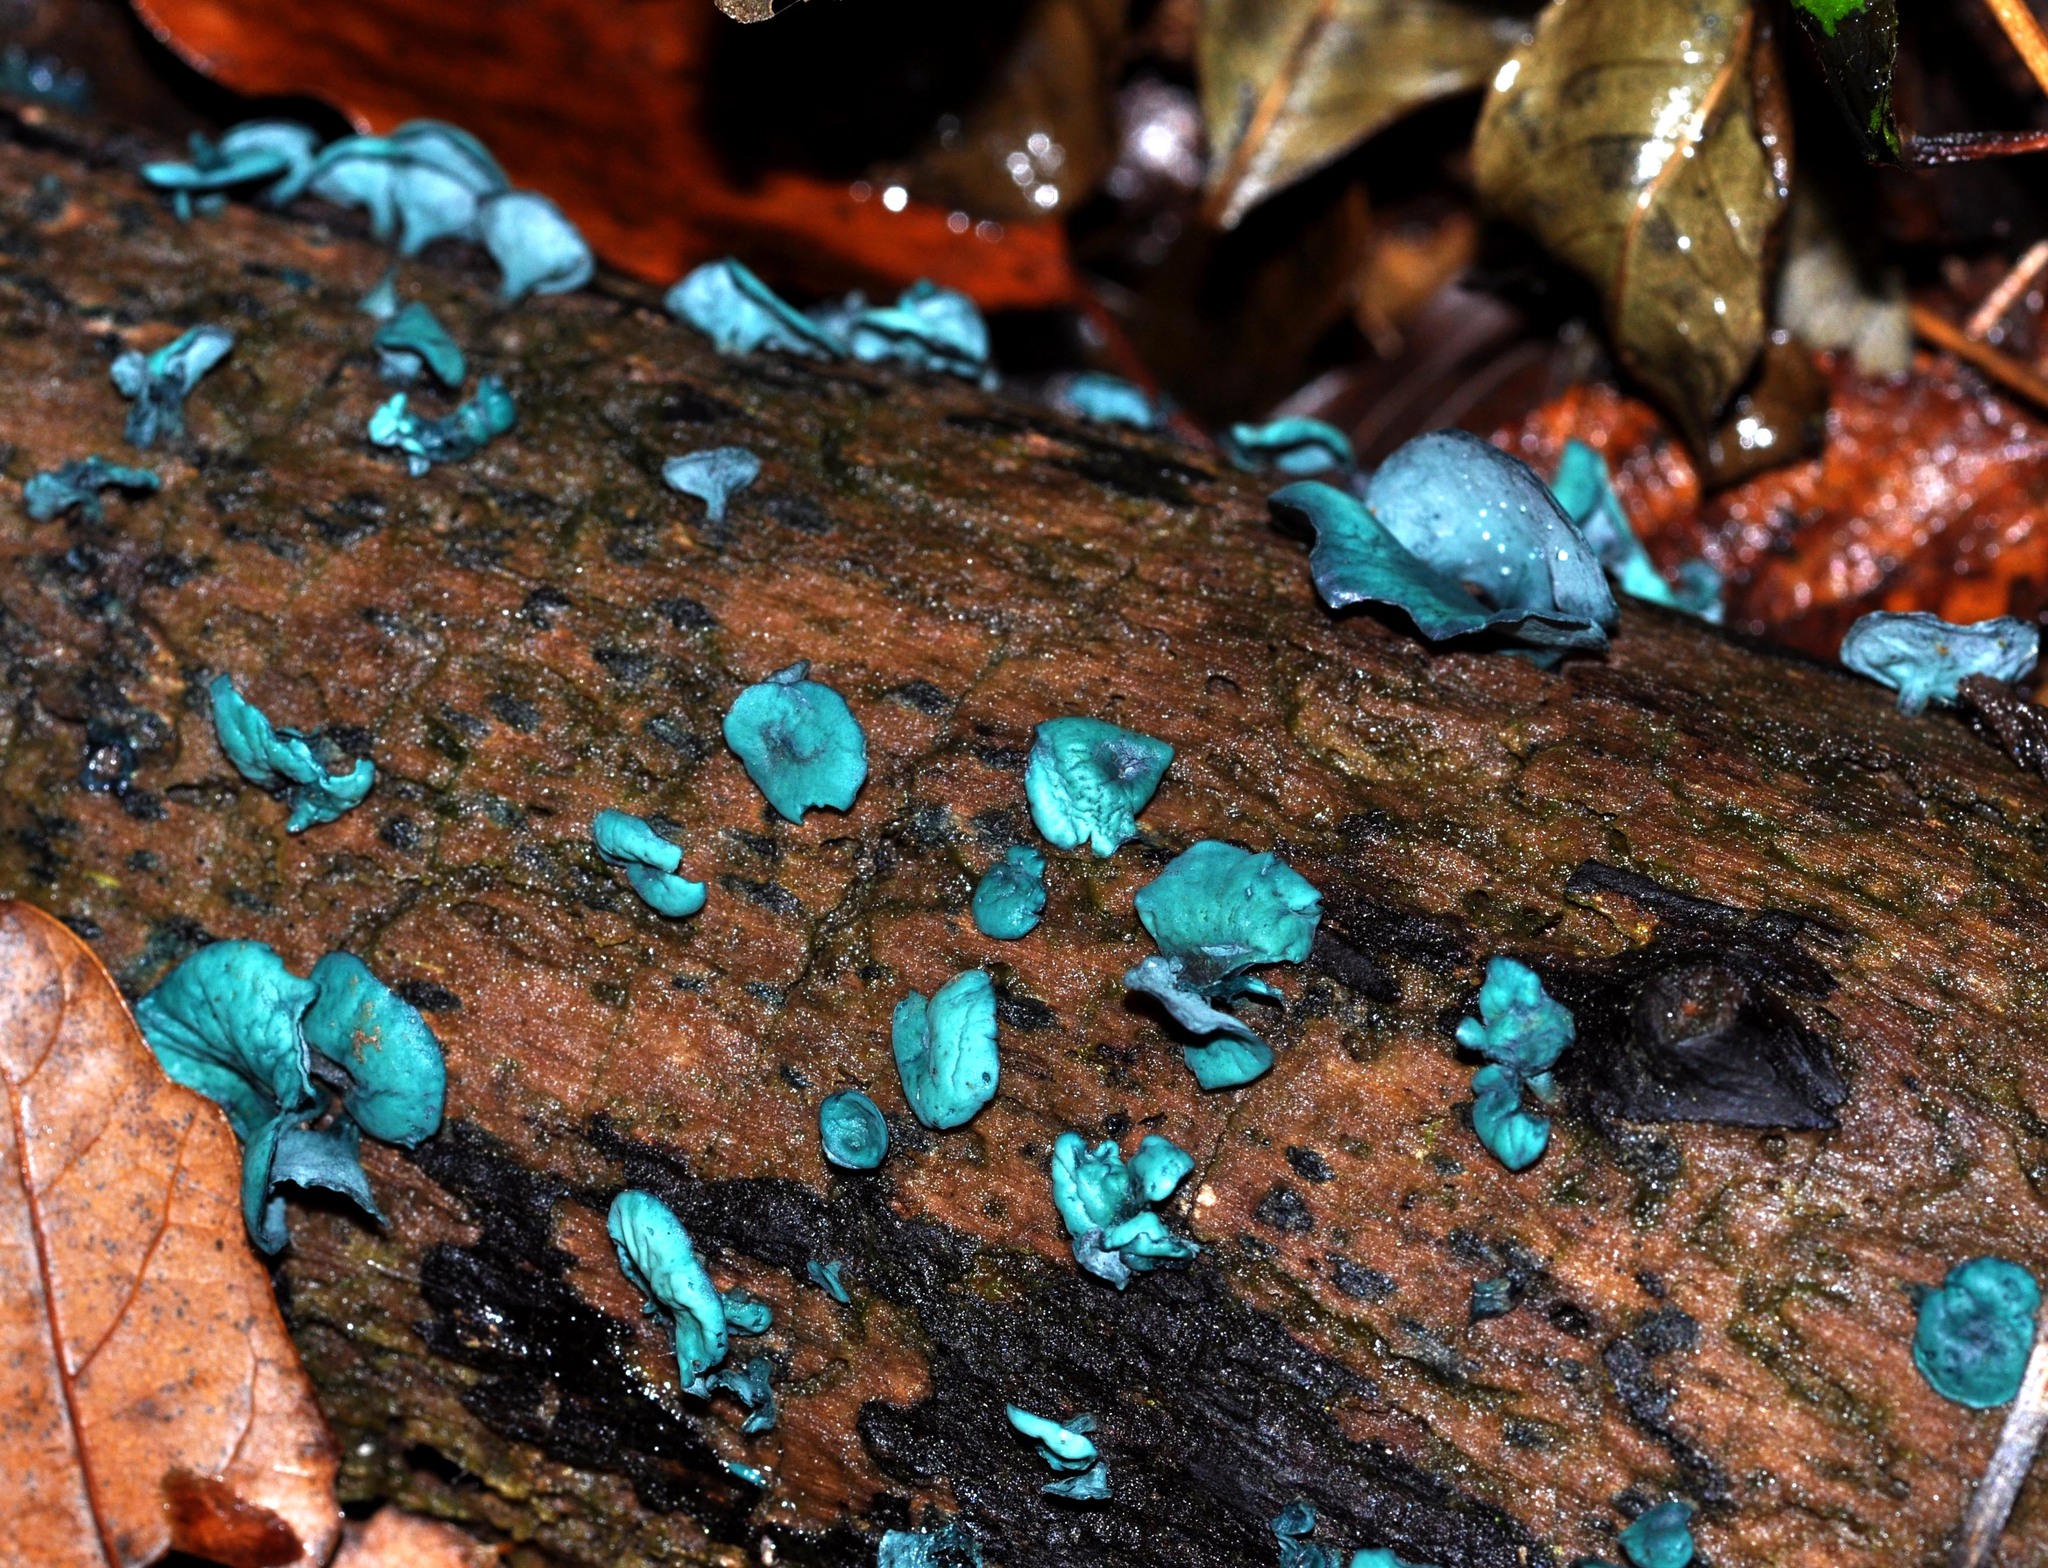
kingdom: Fungi
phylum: Ascomycota
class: Leotiomycetes
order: Helotiales
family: Chlorociboriaceae
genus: Chlorociboria
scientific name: Chlorociboria aeruginascens
